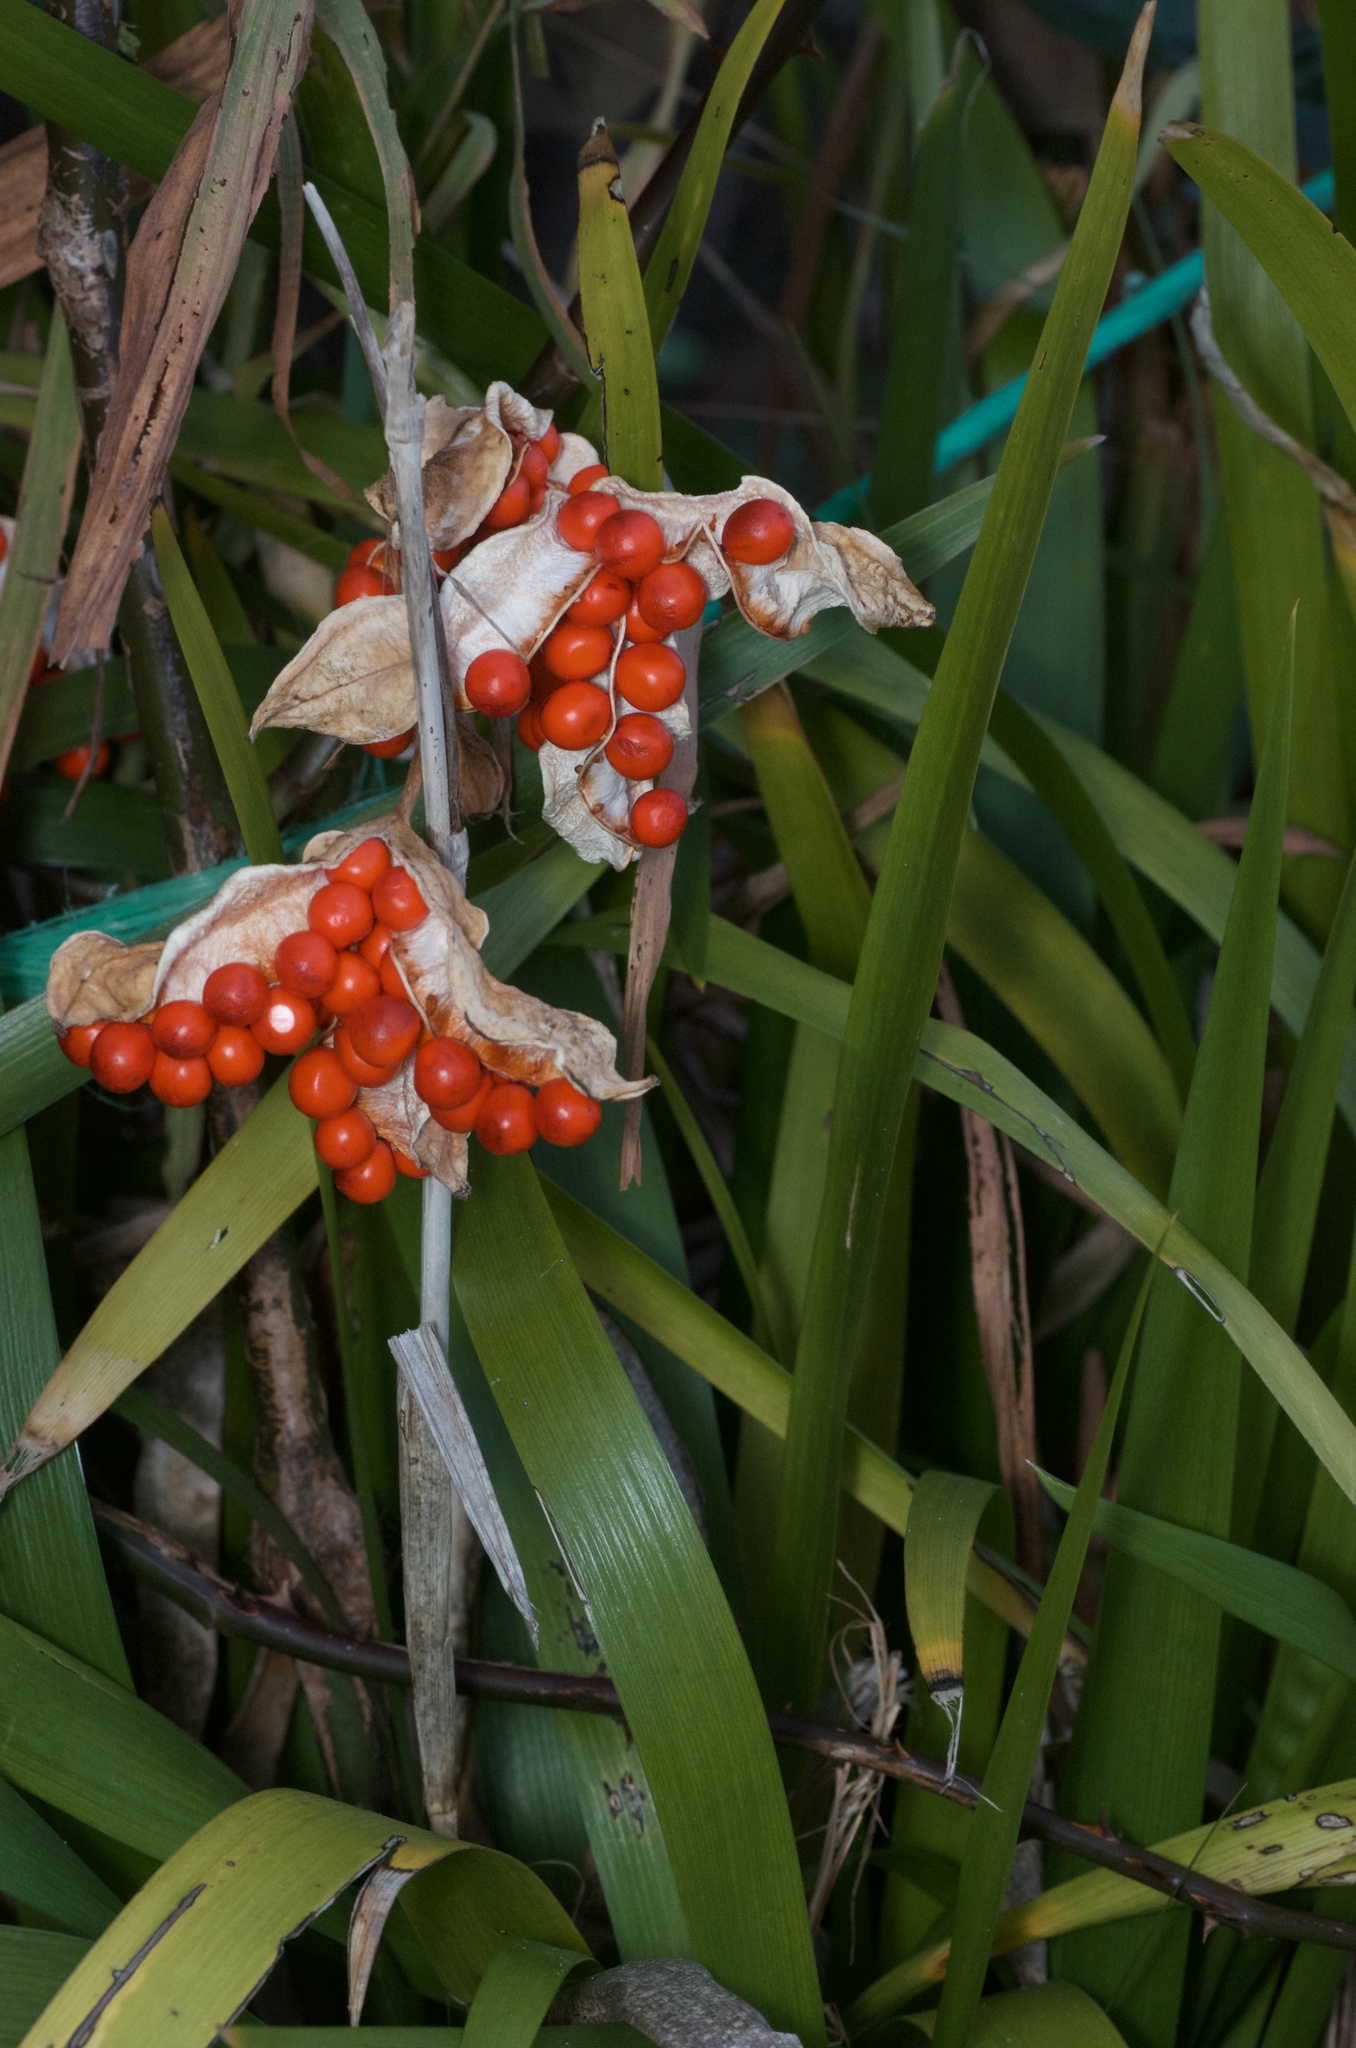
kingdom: Plantae
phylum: Tracheophyta
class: Liliopsida
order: Asparagales
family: Iridaceae
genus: Iris
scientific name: Iris foetidissima
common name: Stinking iris
